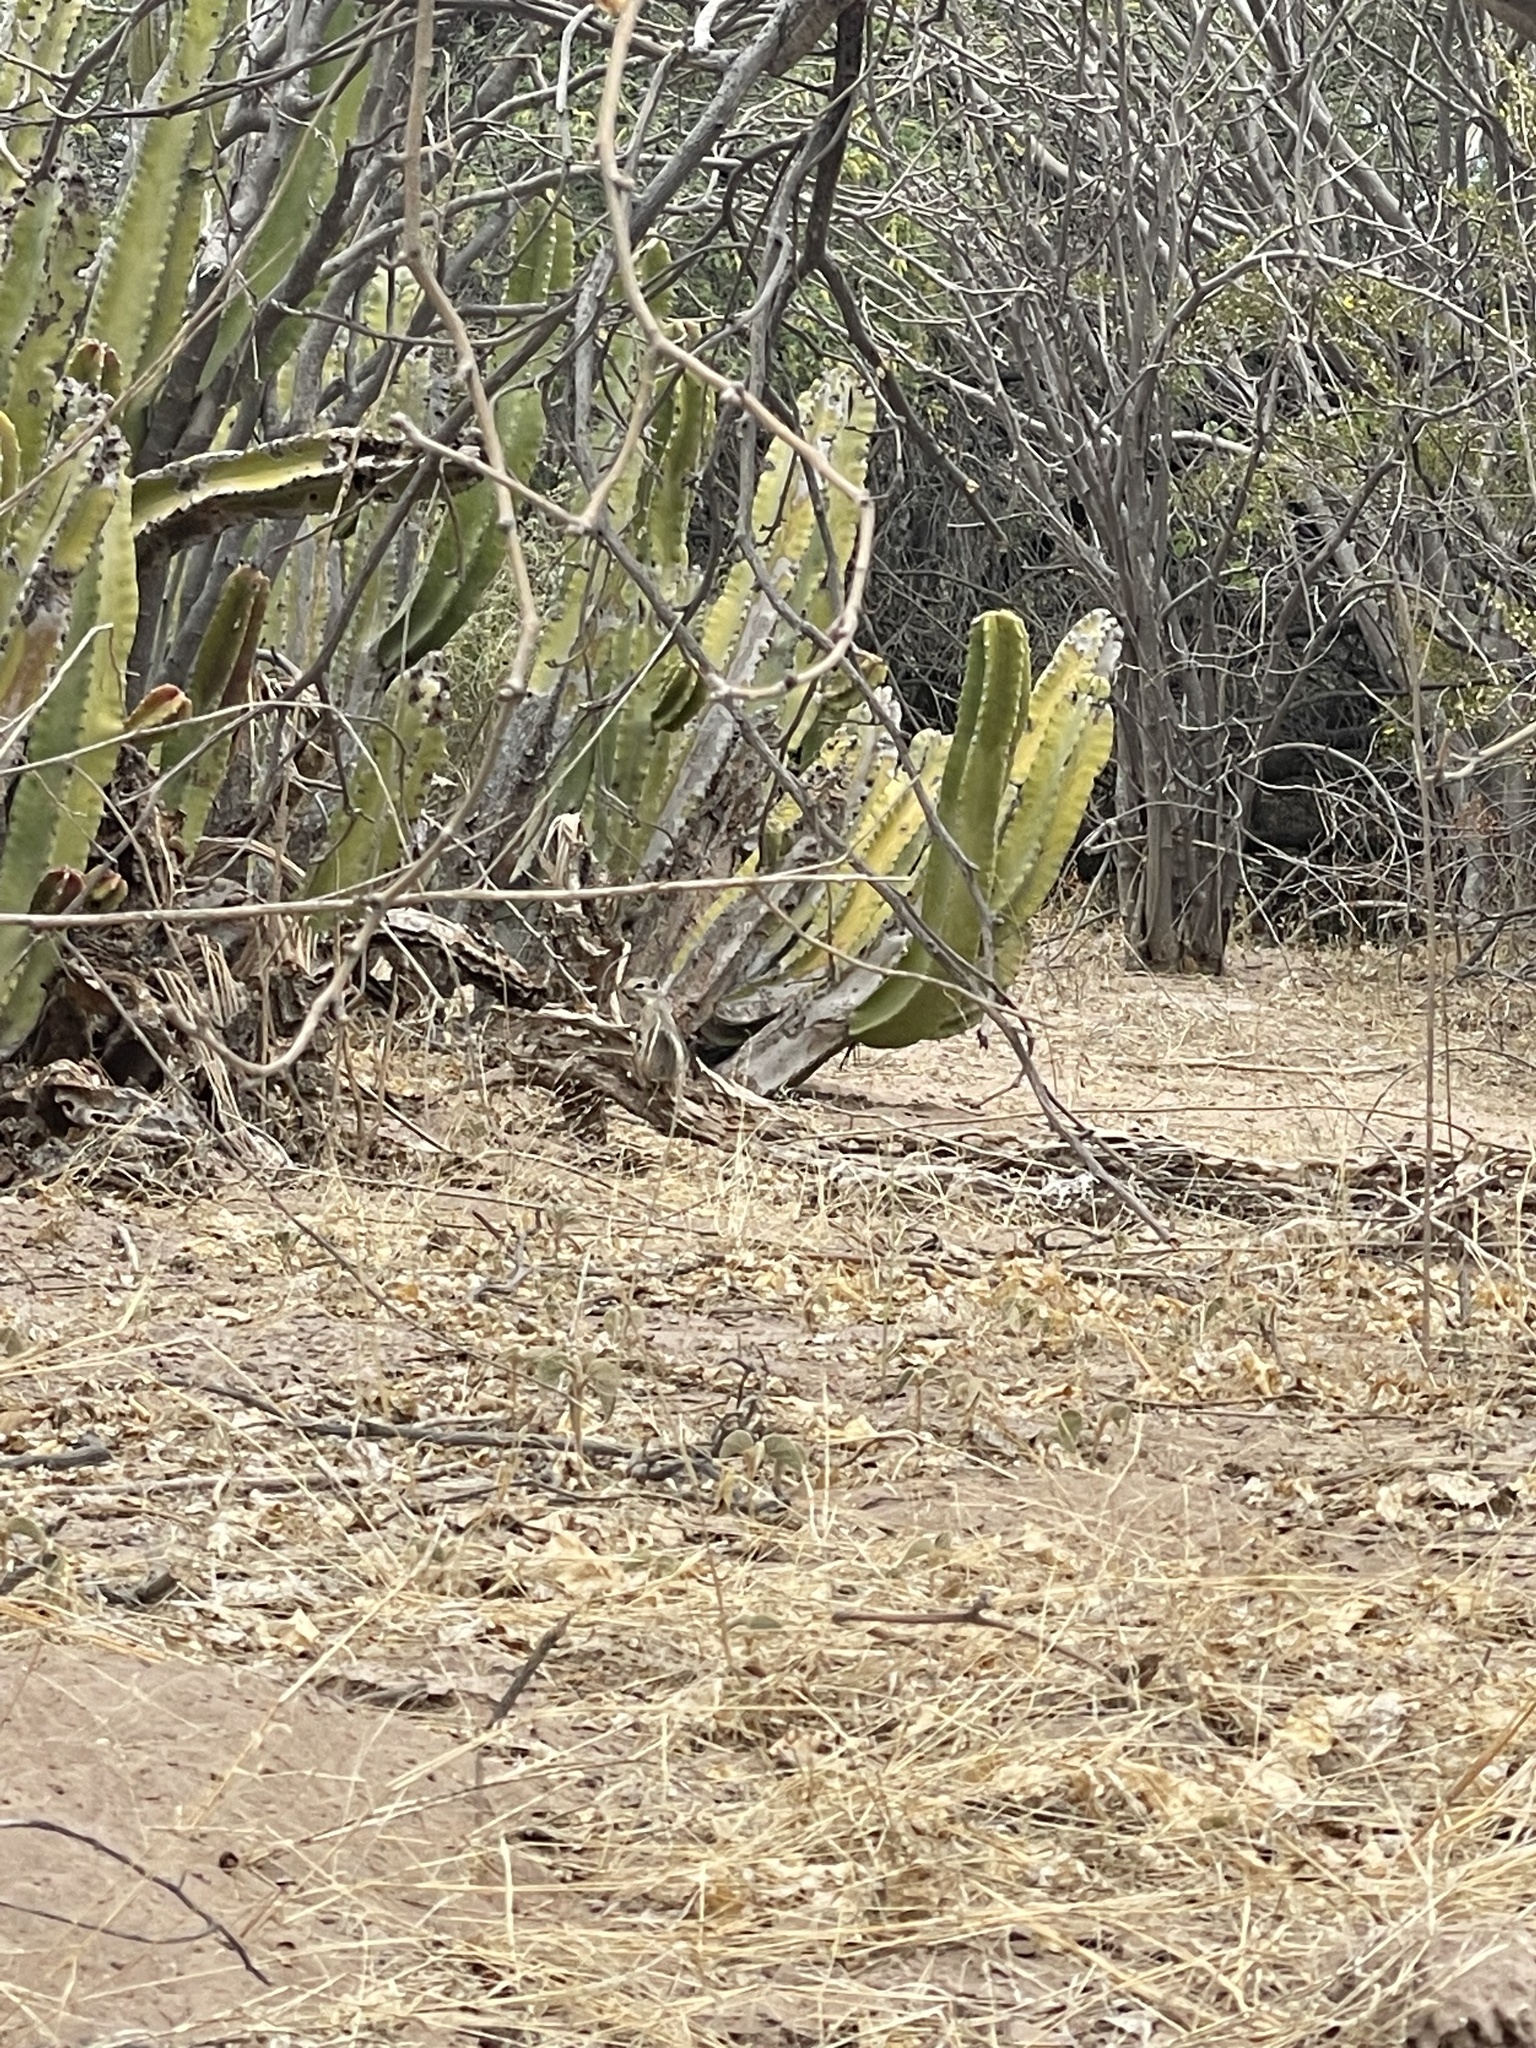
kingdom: Animalia
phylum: Chordata
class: Mammalia
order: Rodentia
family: Sciuridae
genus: Ammospermophilus
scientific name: Ammospermophilus leucurus
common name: White-tailed antelope squirrel
